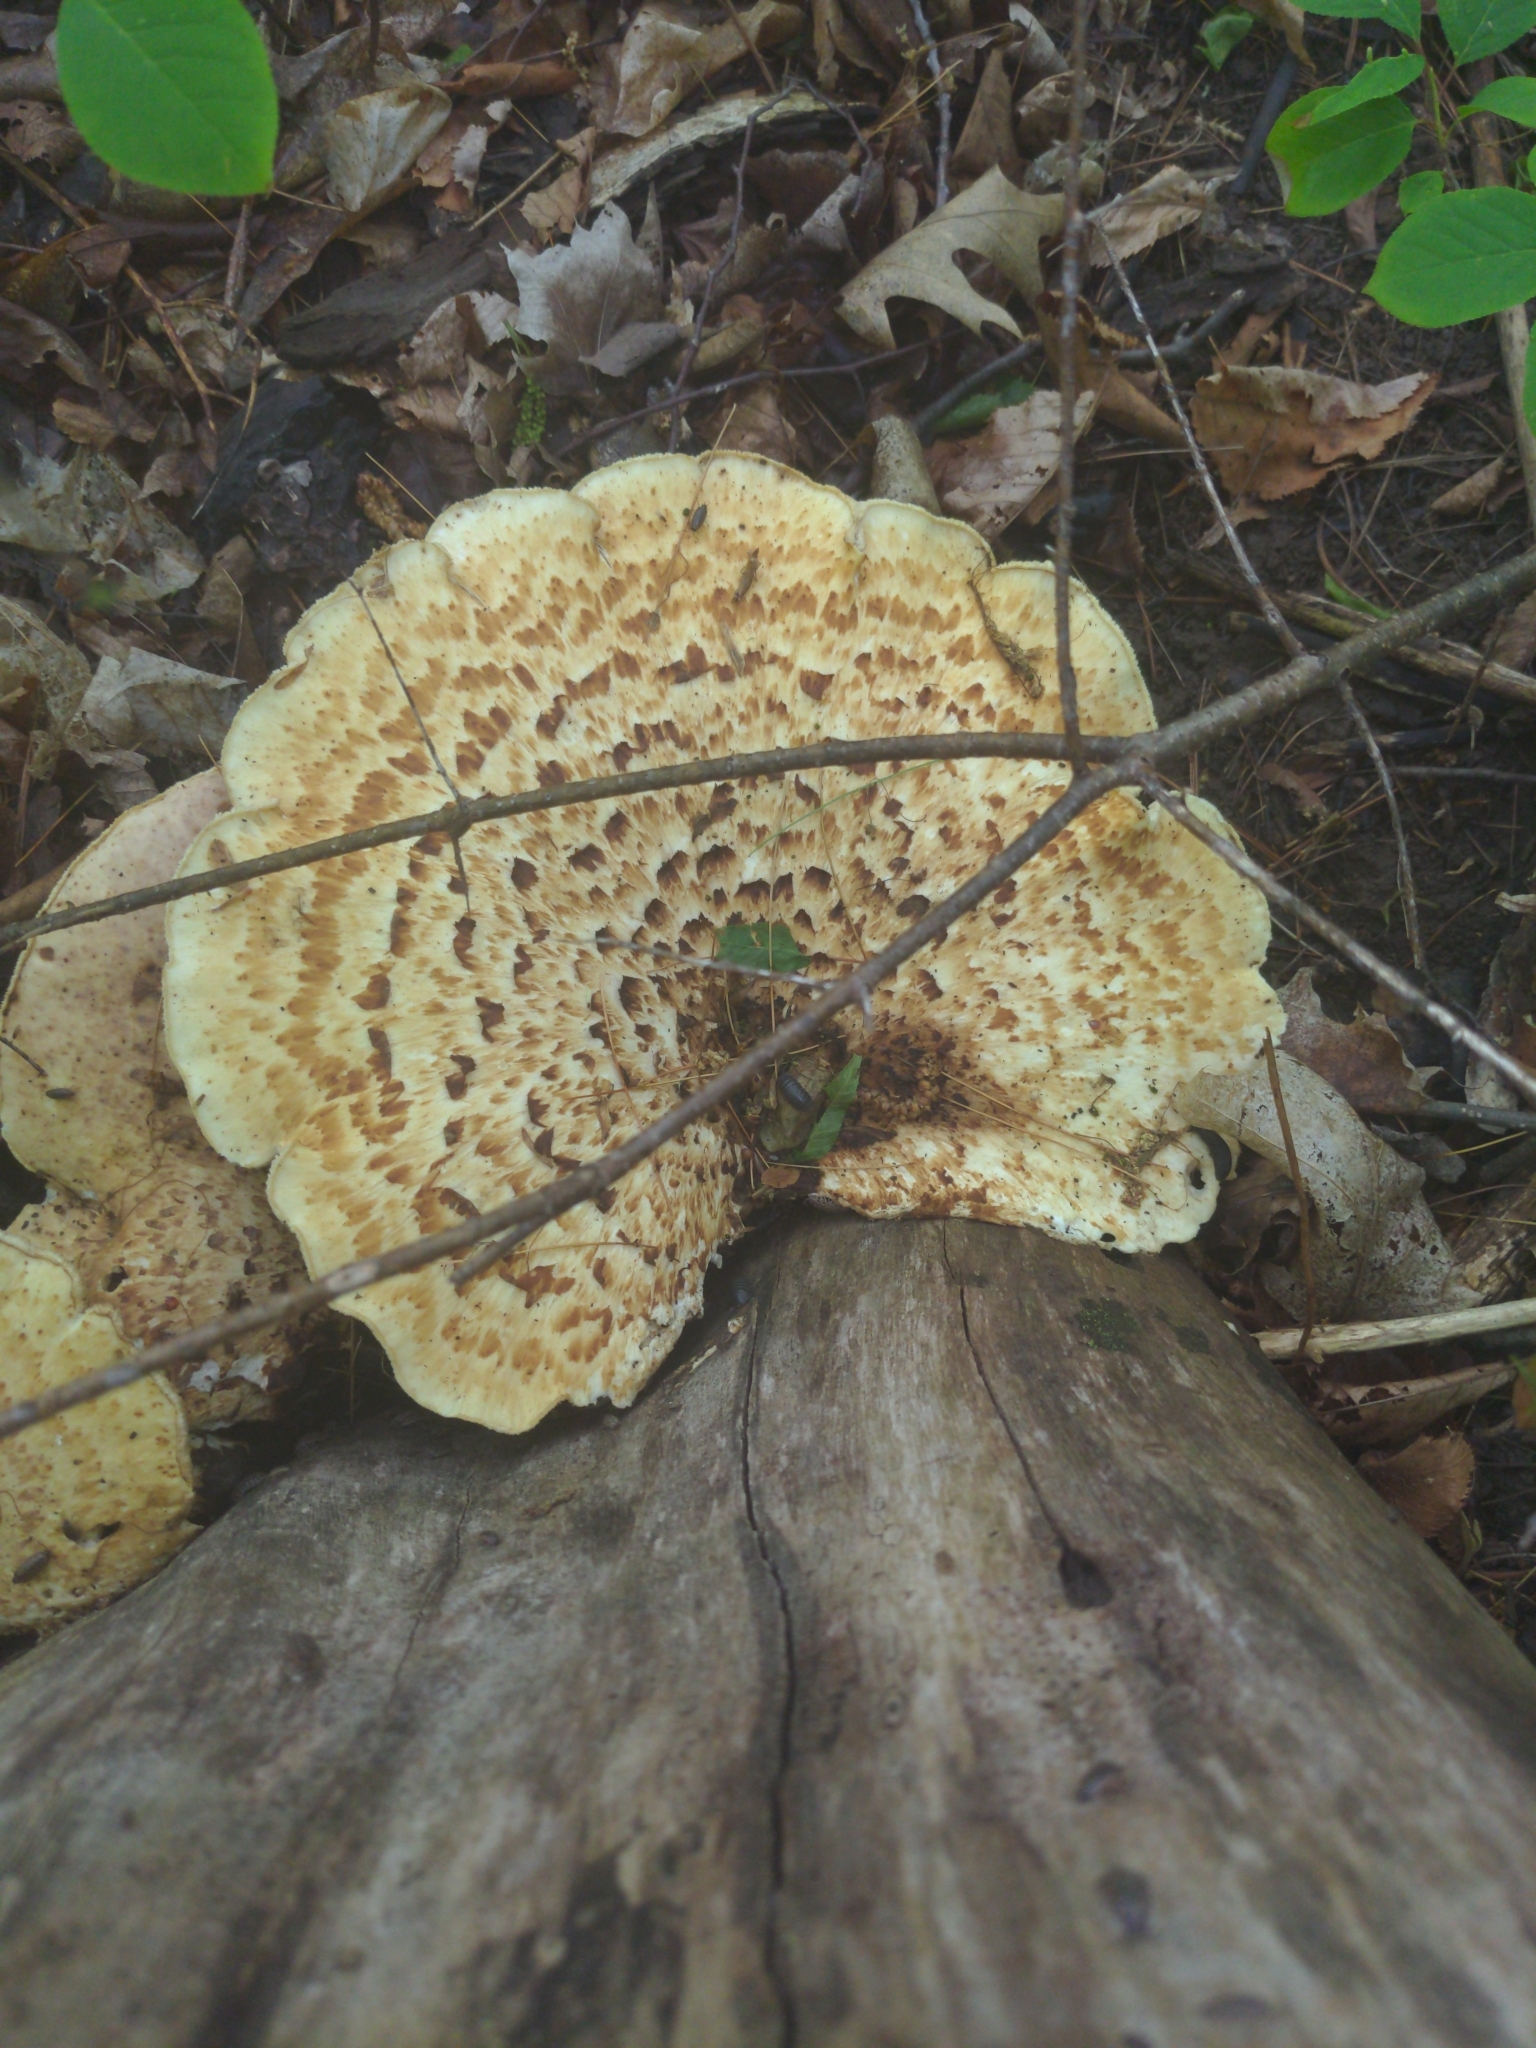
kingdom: Fungi
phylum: Basidiomycota
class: Agaricomycetes
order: Polyporales
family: Polyporaceae
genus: Cerioporus
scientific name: Cerioporus squamosus
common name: Dryad's saddle
